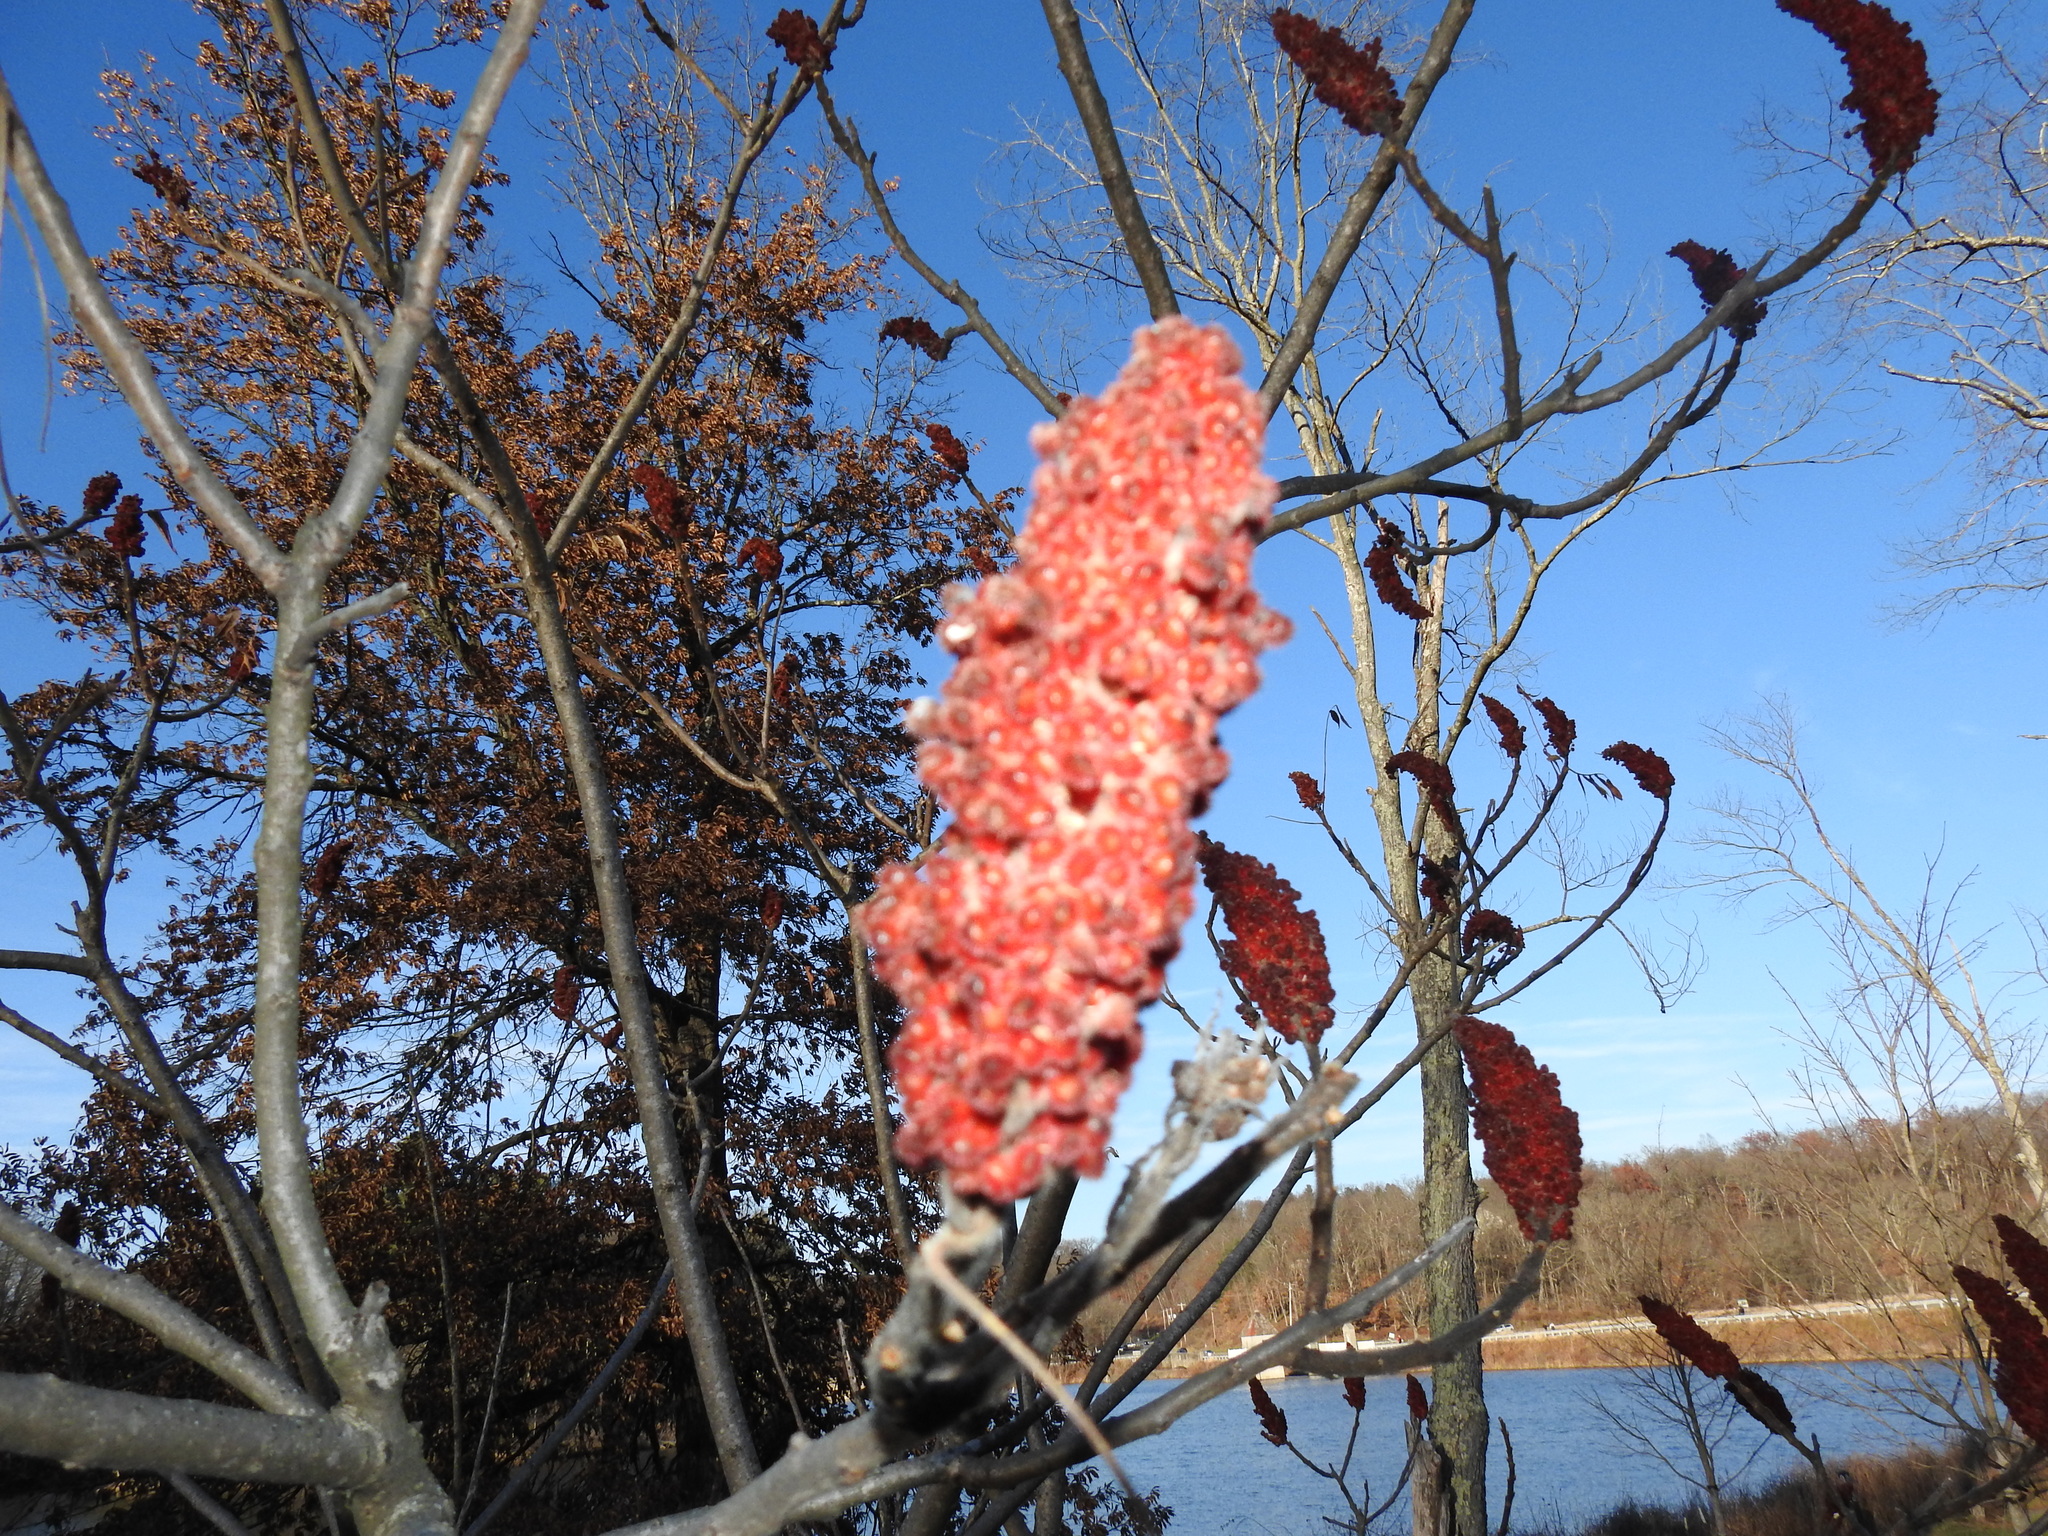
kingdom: Plantae
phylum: Tracheophyta
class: Magnoliopsida
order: Sapindales
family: Anacardiaceae
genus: Rhus
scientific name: Rhus typhina
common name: Staghorn sumac
